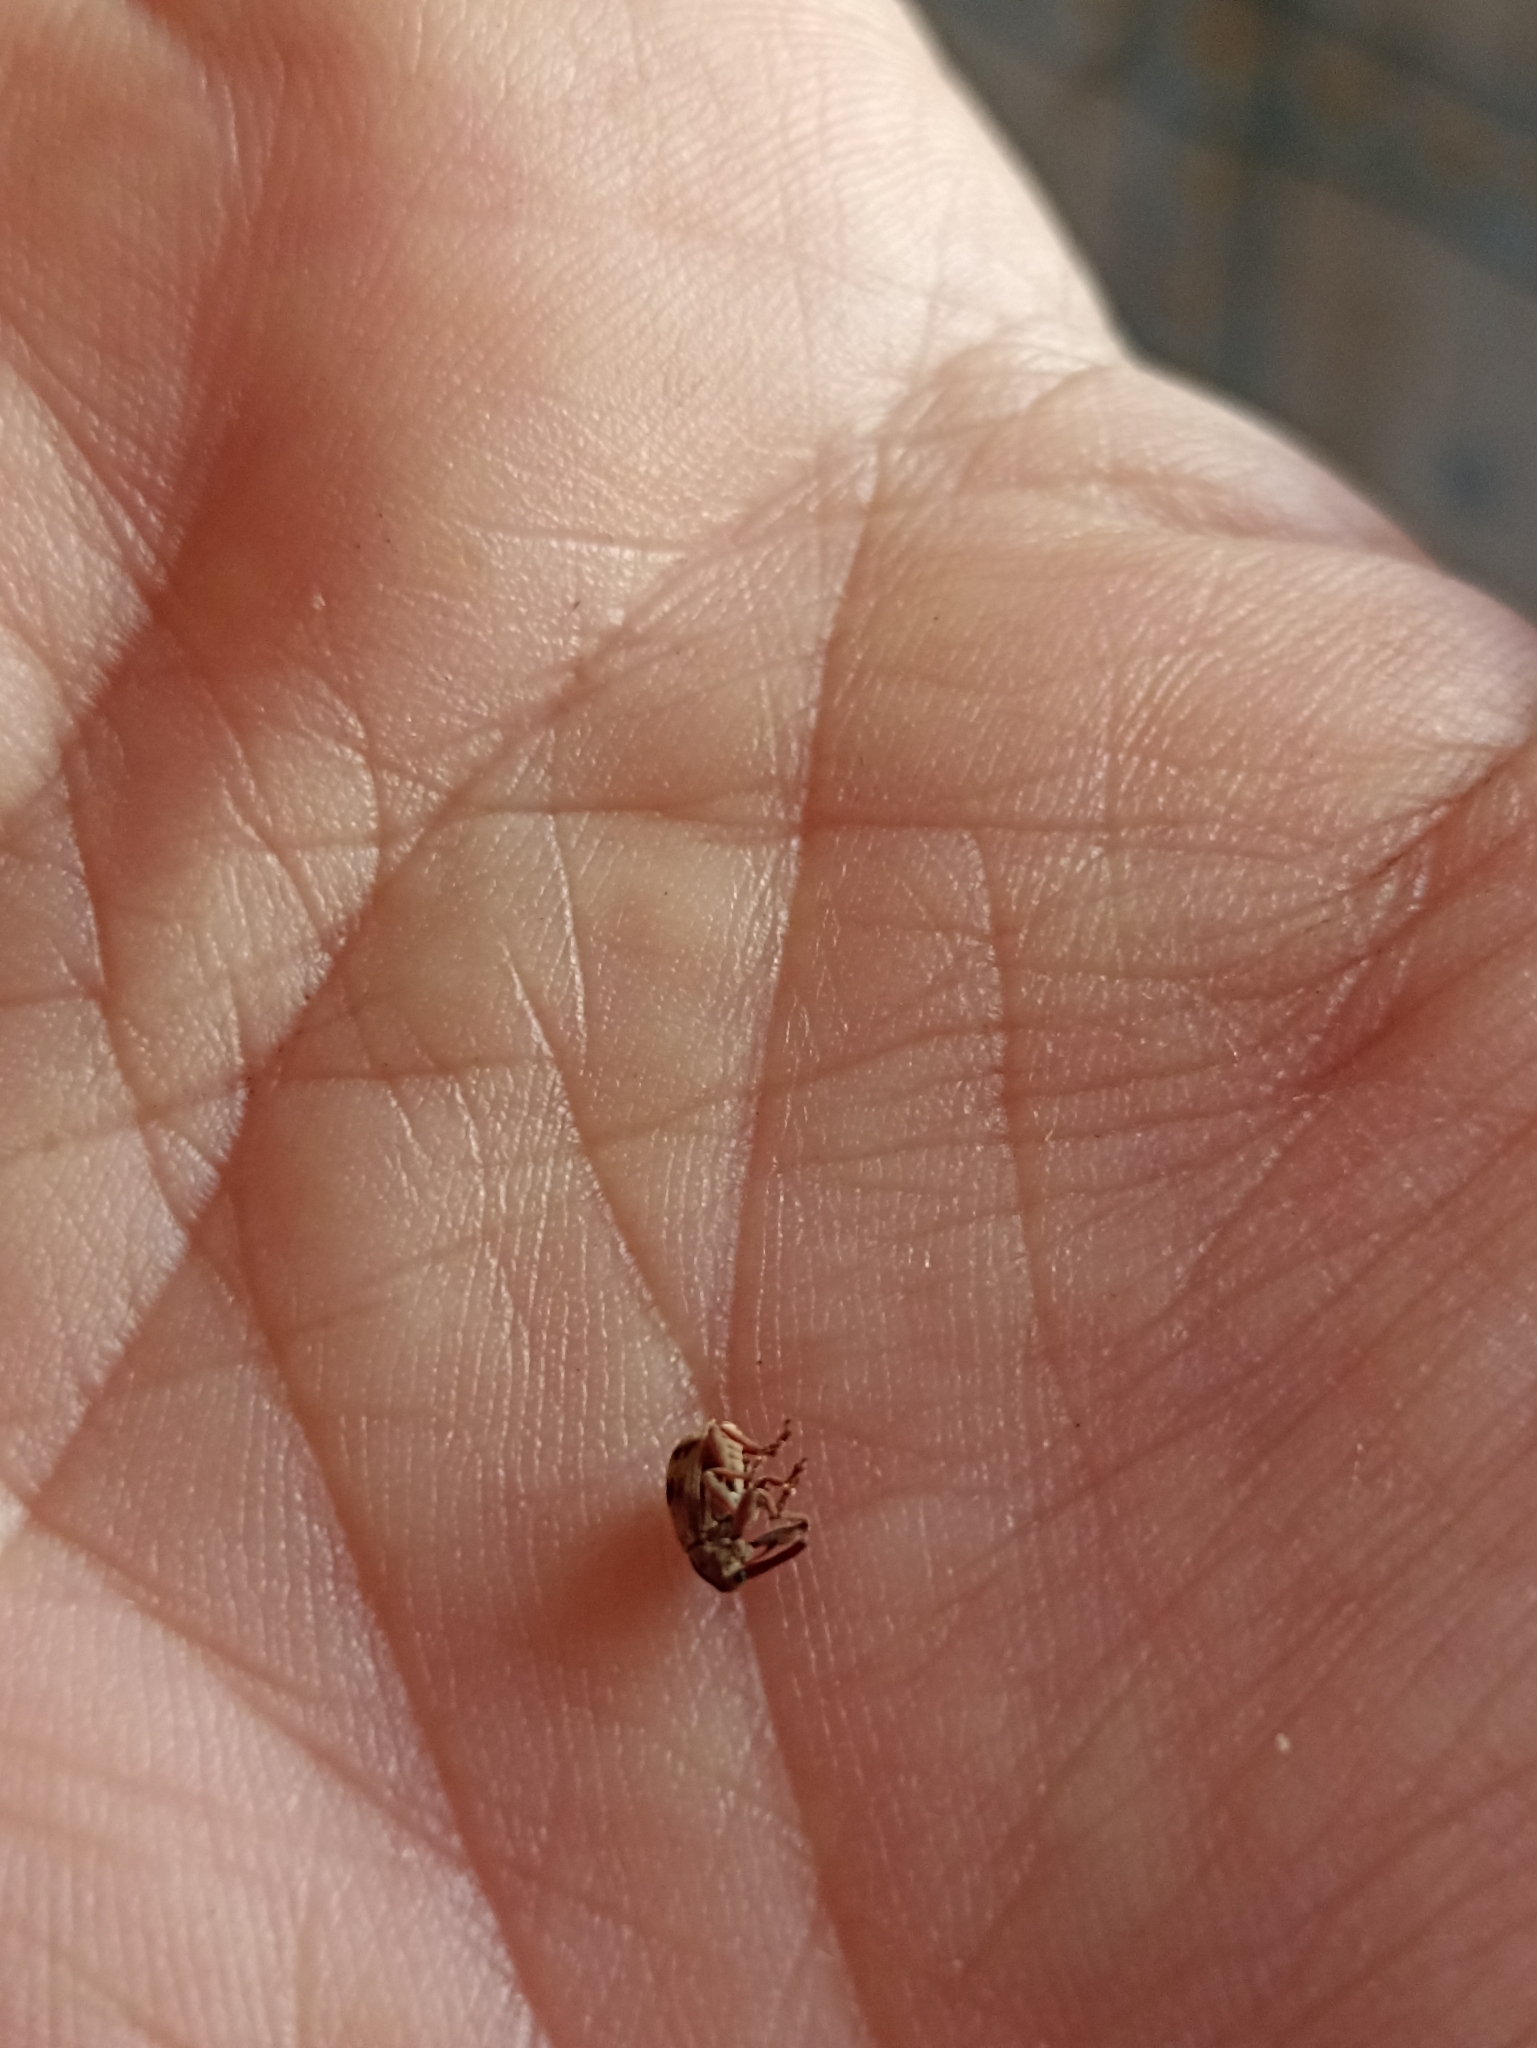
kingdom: Animalia
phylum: Arthropoda
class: Insecta
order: Coleoptera
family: Curculionidae
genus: Anthonomus
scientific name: Anthonomus rectirostris
